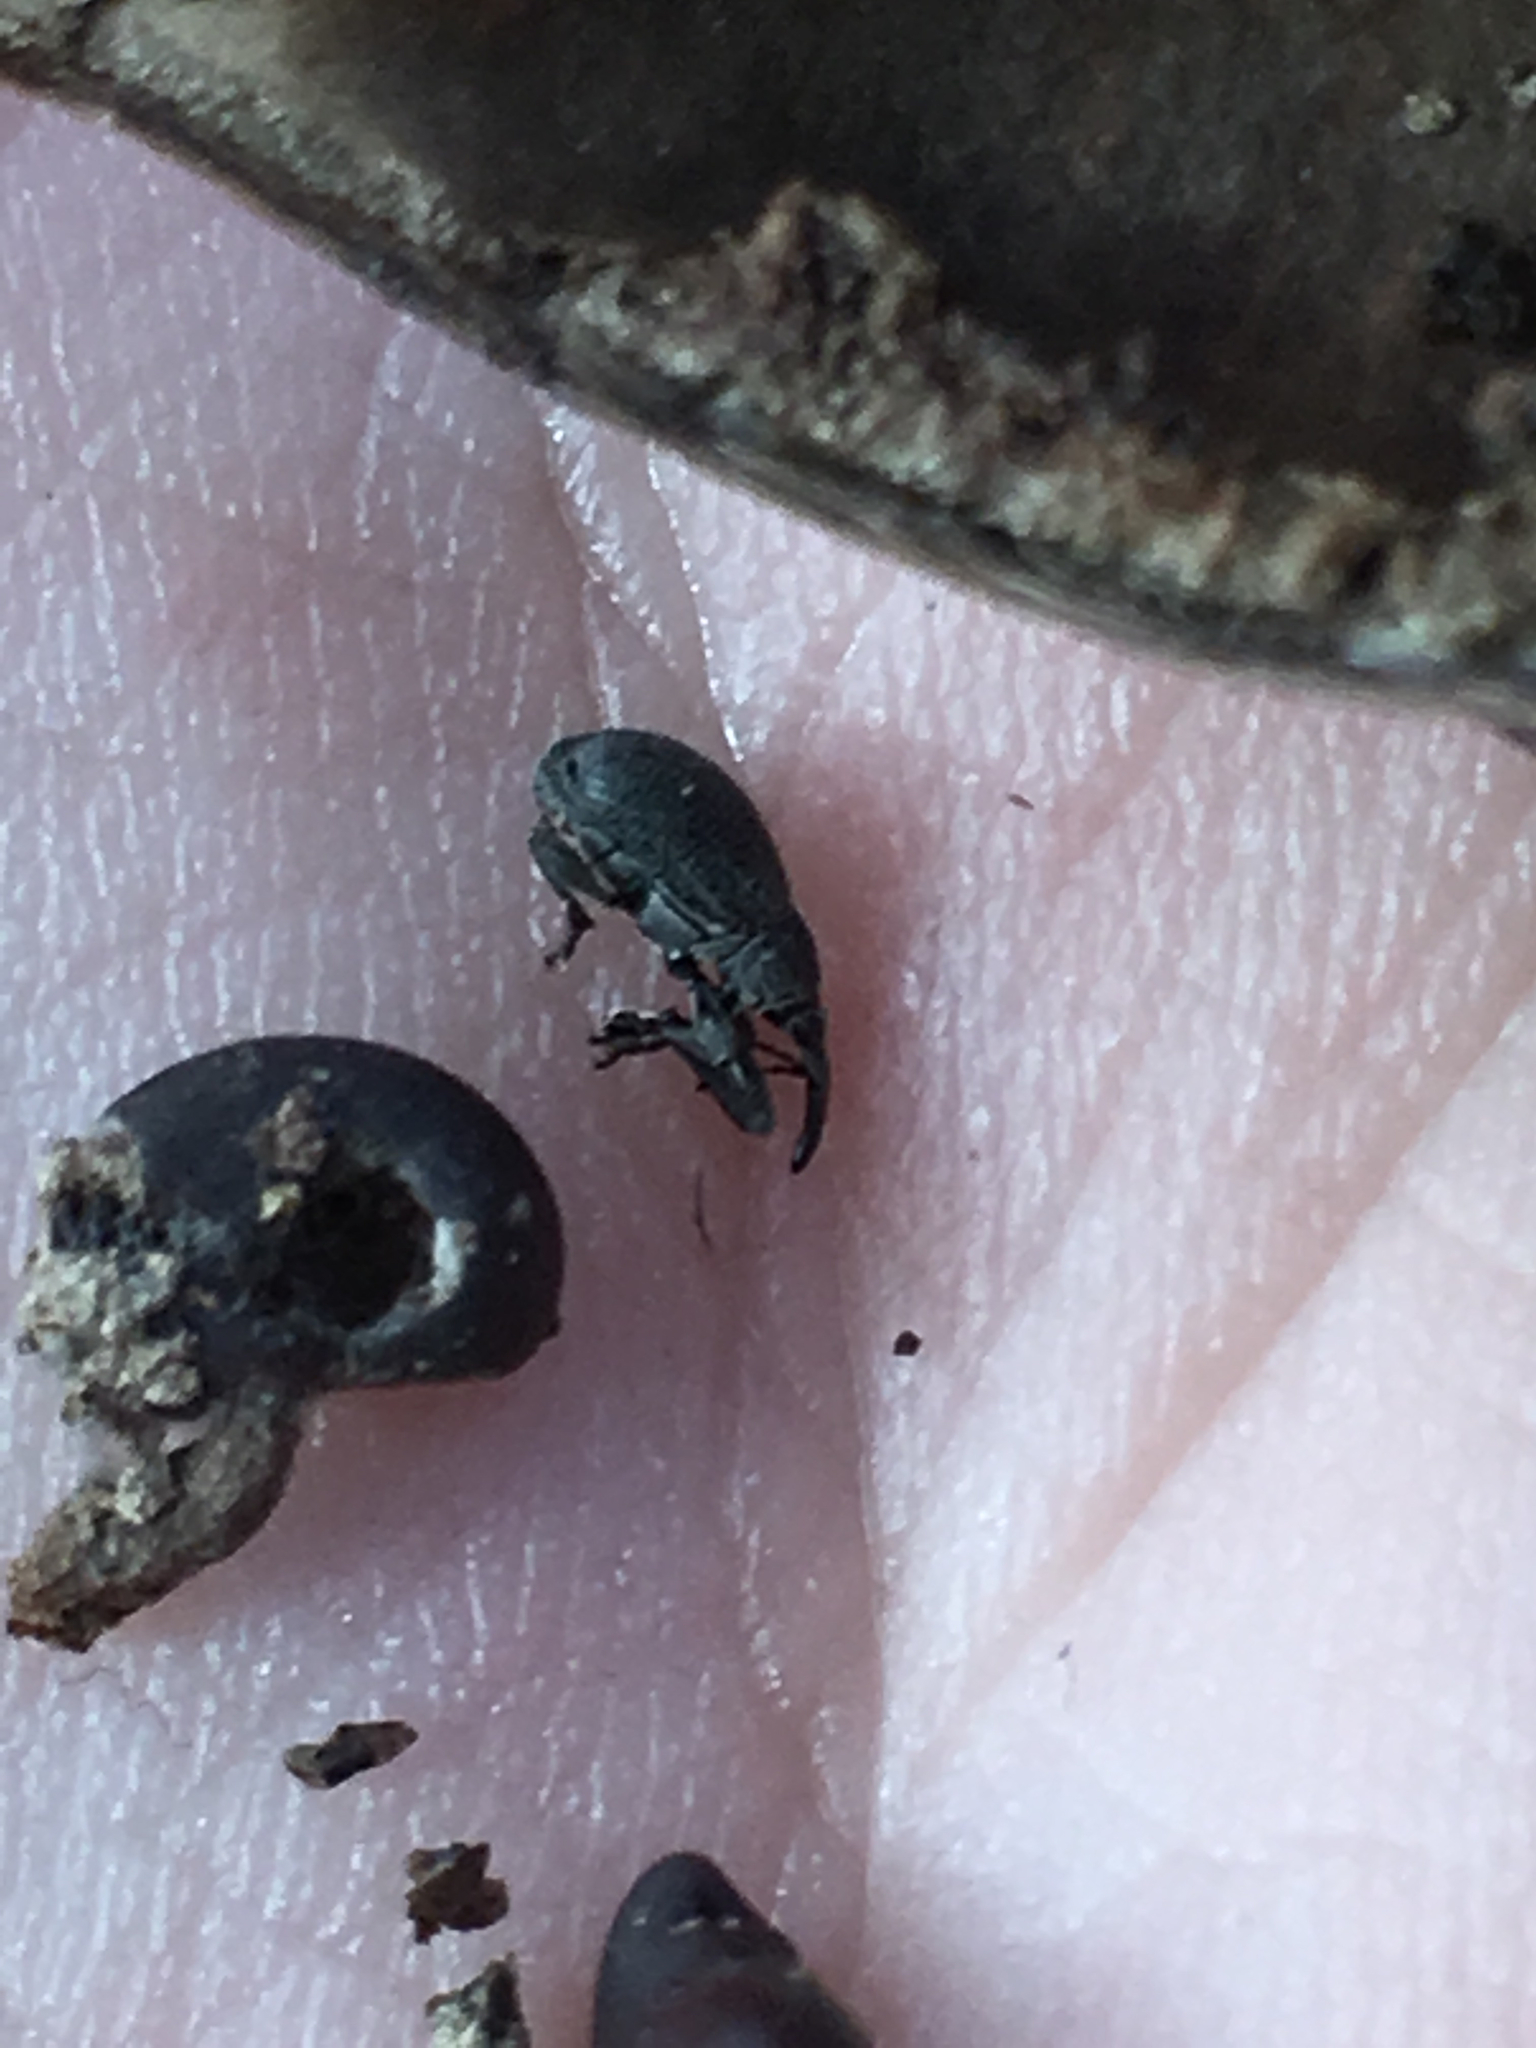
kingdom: Animalia
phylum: Arthropoda
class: Insecta
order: Coleoptera
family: Brentidae
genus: Trichapion
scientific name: Trichapion
